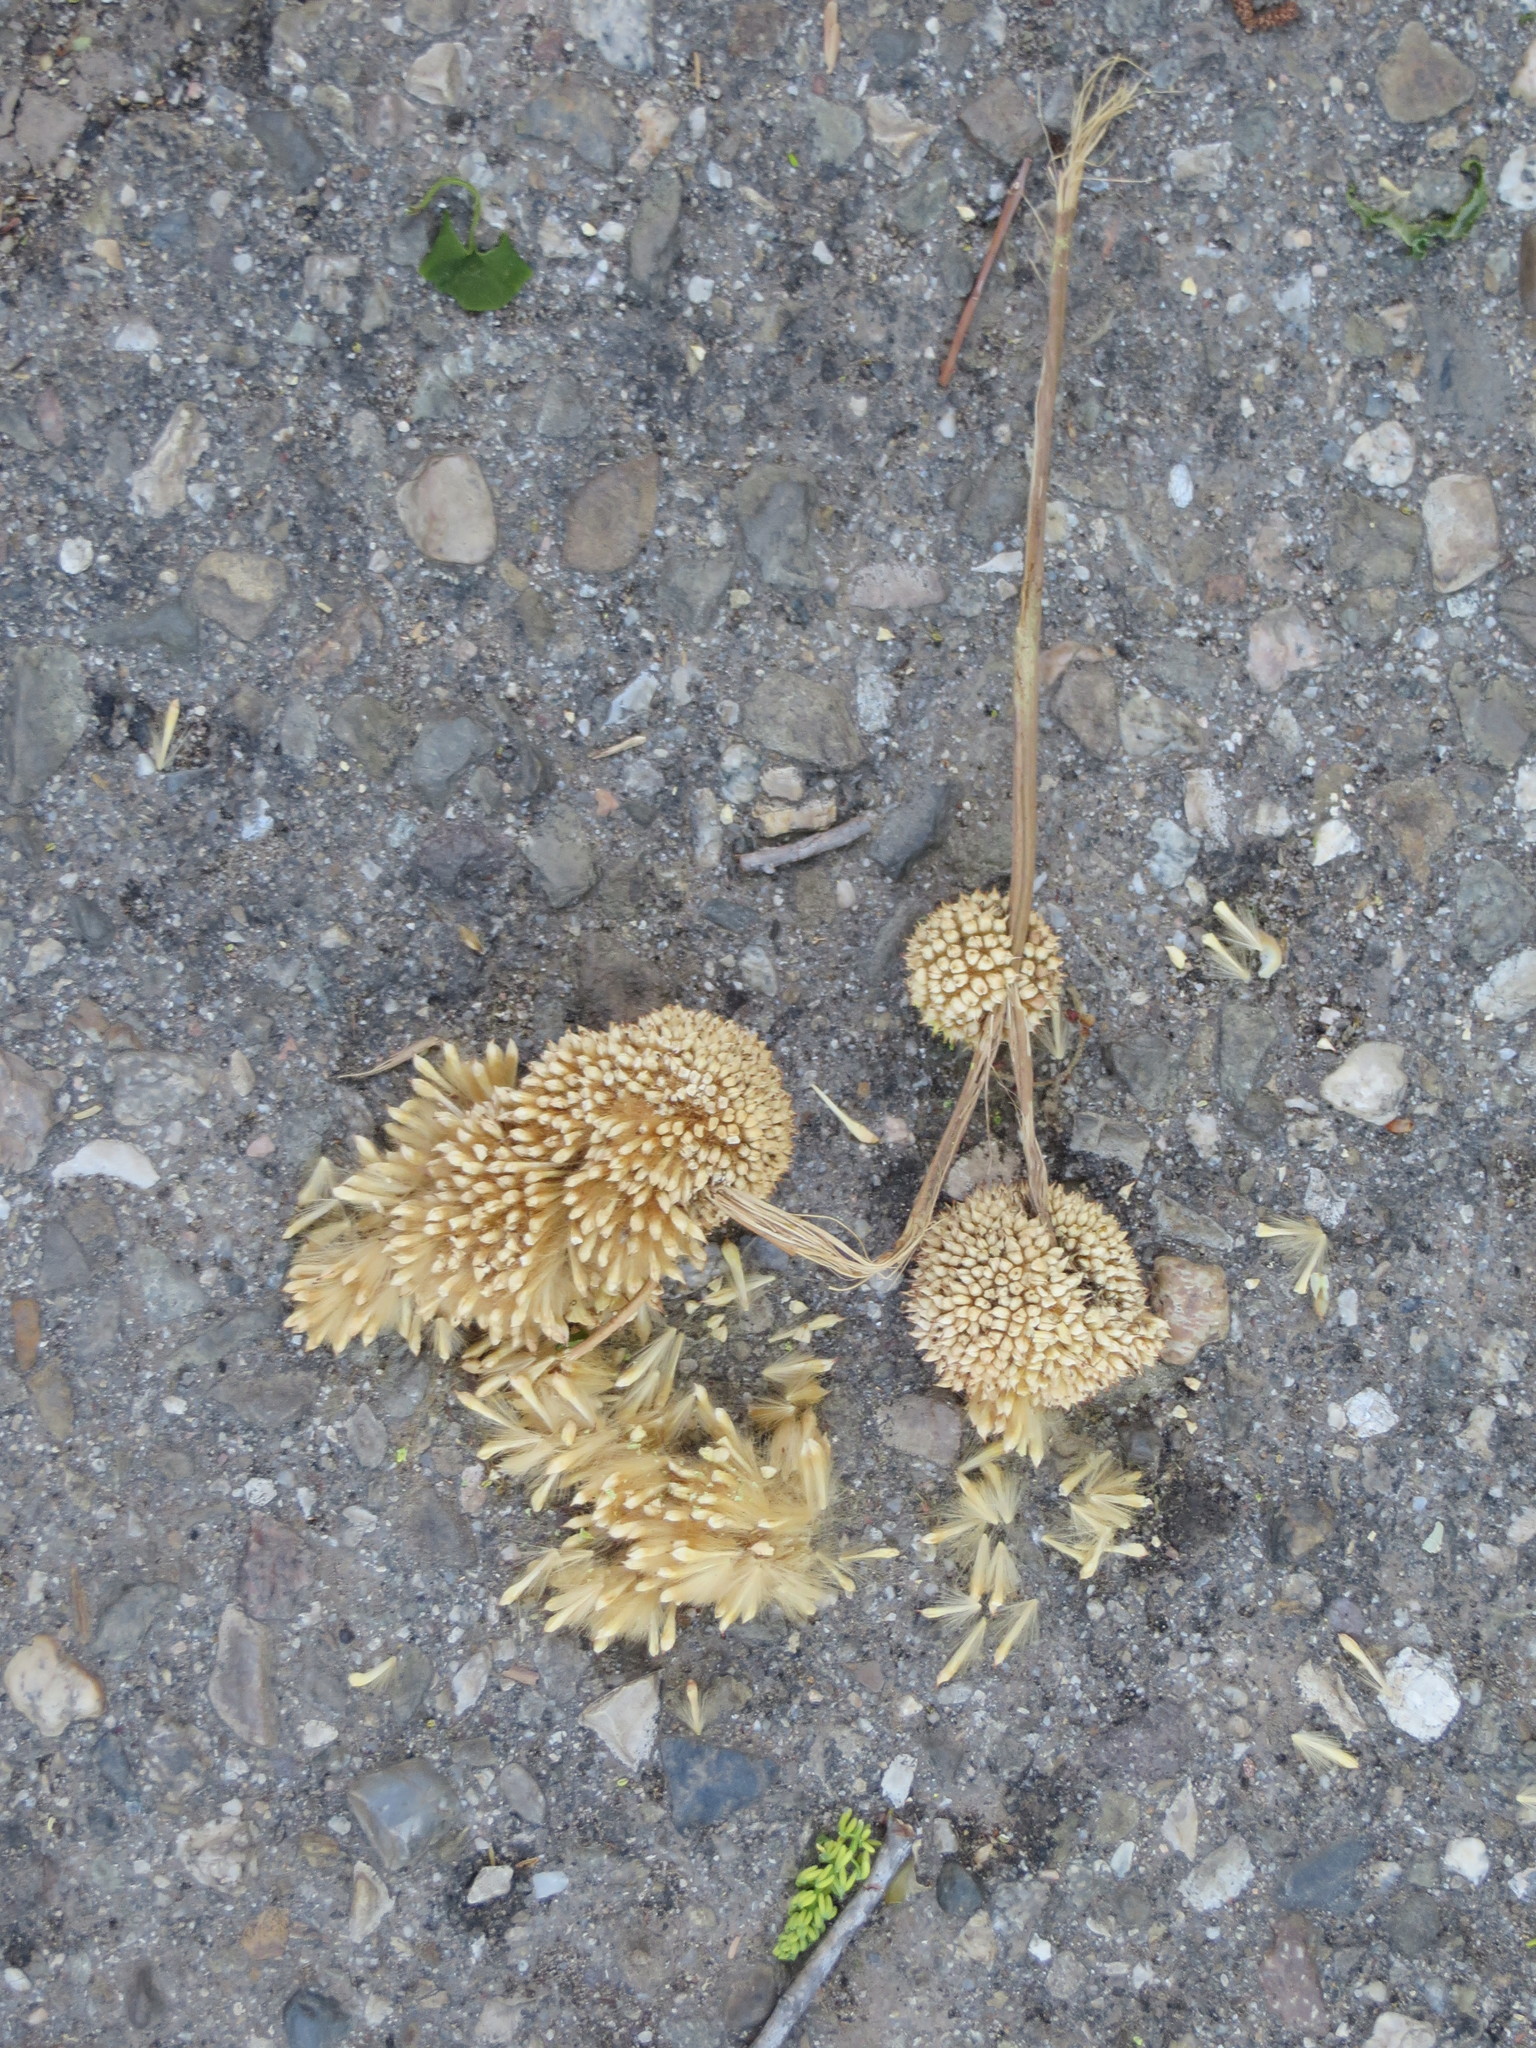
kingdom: Plantae
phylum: Tracheophyta
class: Magnoliopsida
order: Proteales
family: Platanaceae
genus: Platanus
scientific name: Platanus racemosa
